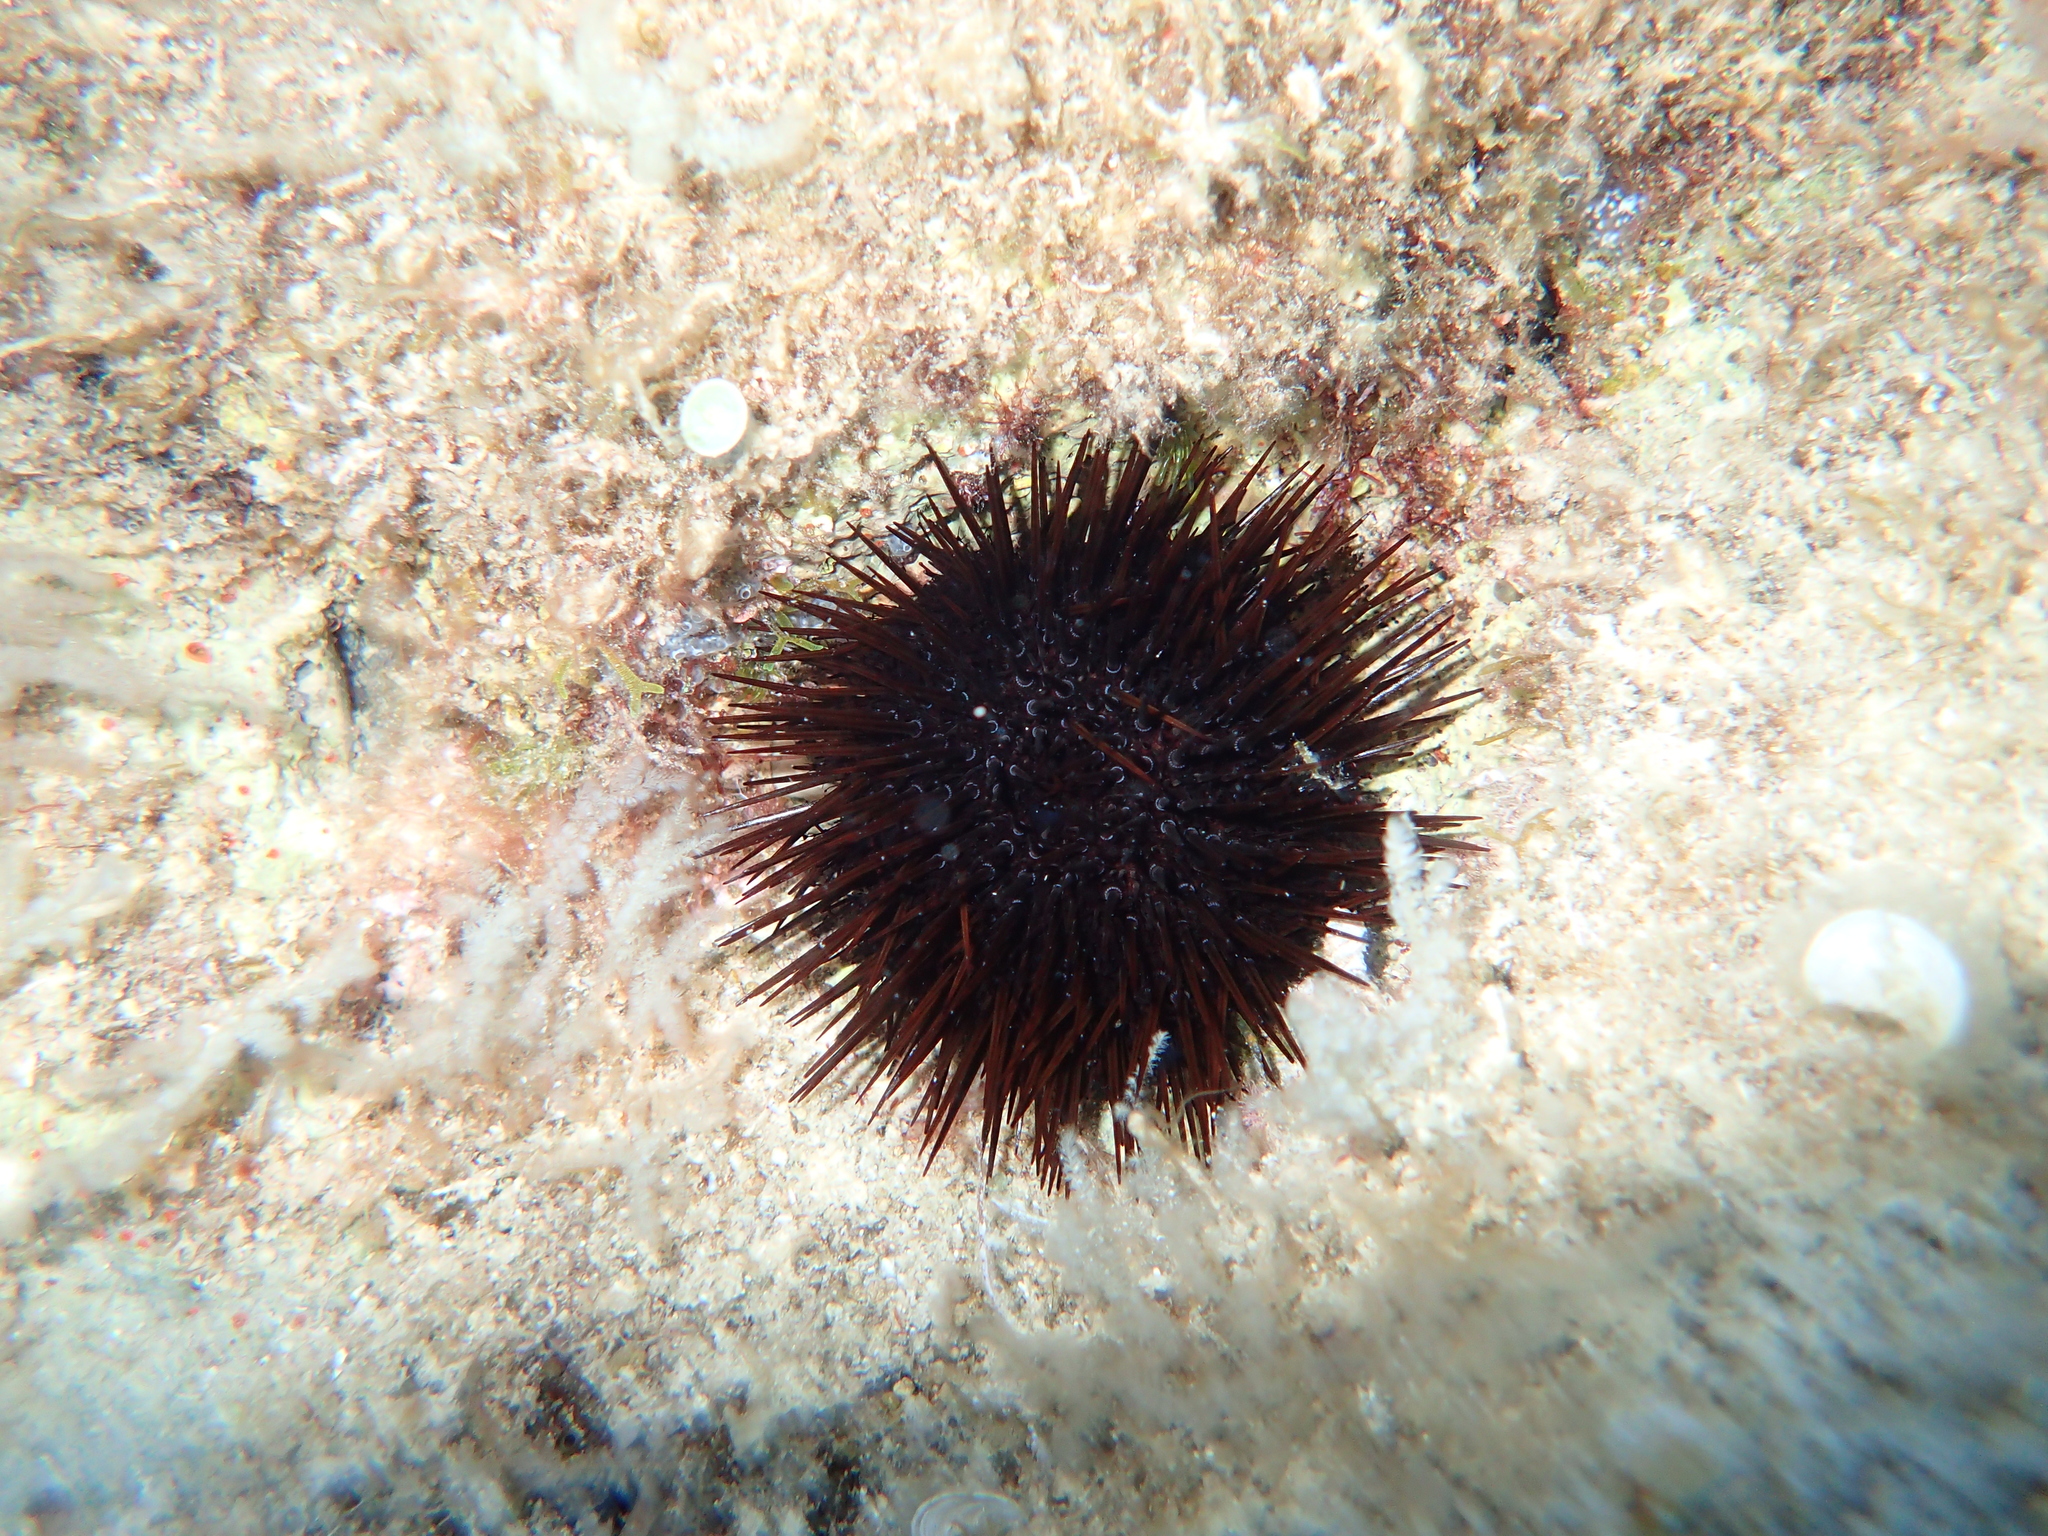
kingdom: Animalia
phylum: Echinodermata
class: Echinoidea
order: Camarodonta
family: Parechinidae
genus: Paracentrotus
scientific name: Paracentrotus lividus
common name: Purple sea urchin
